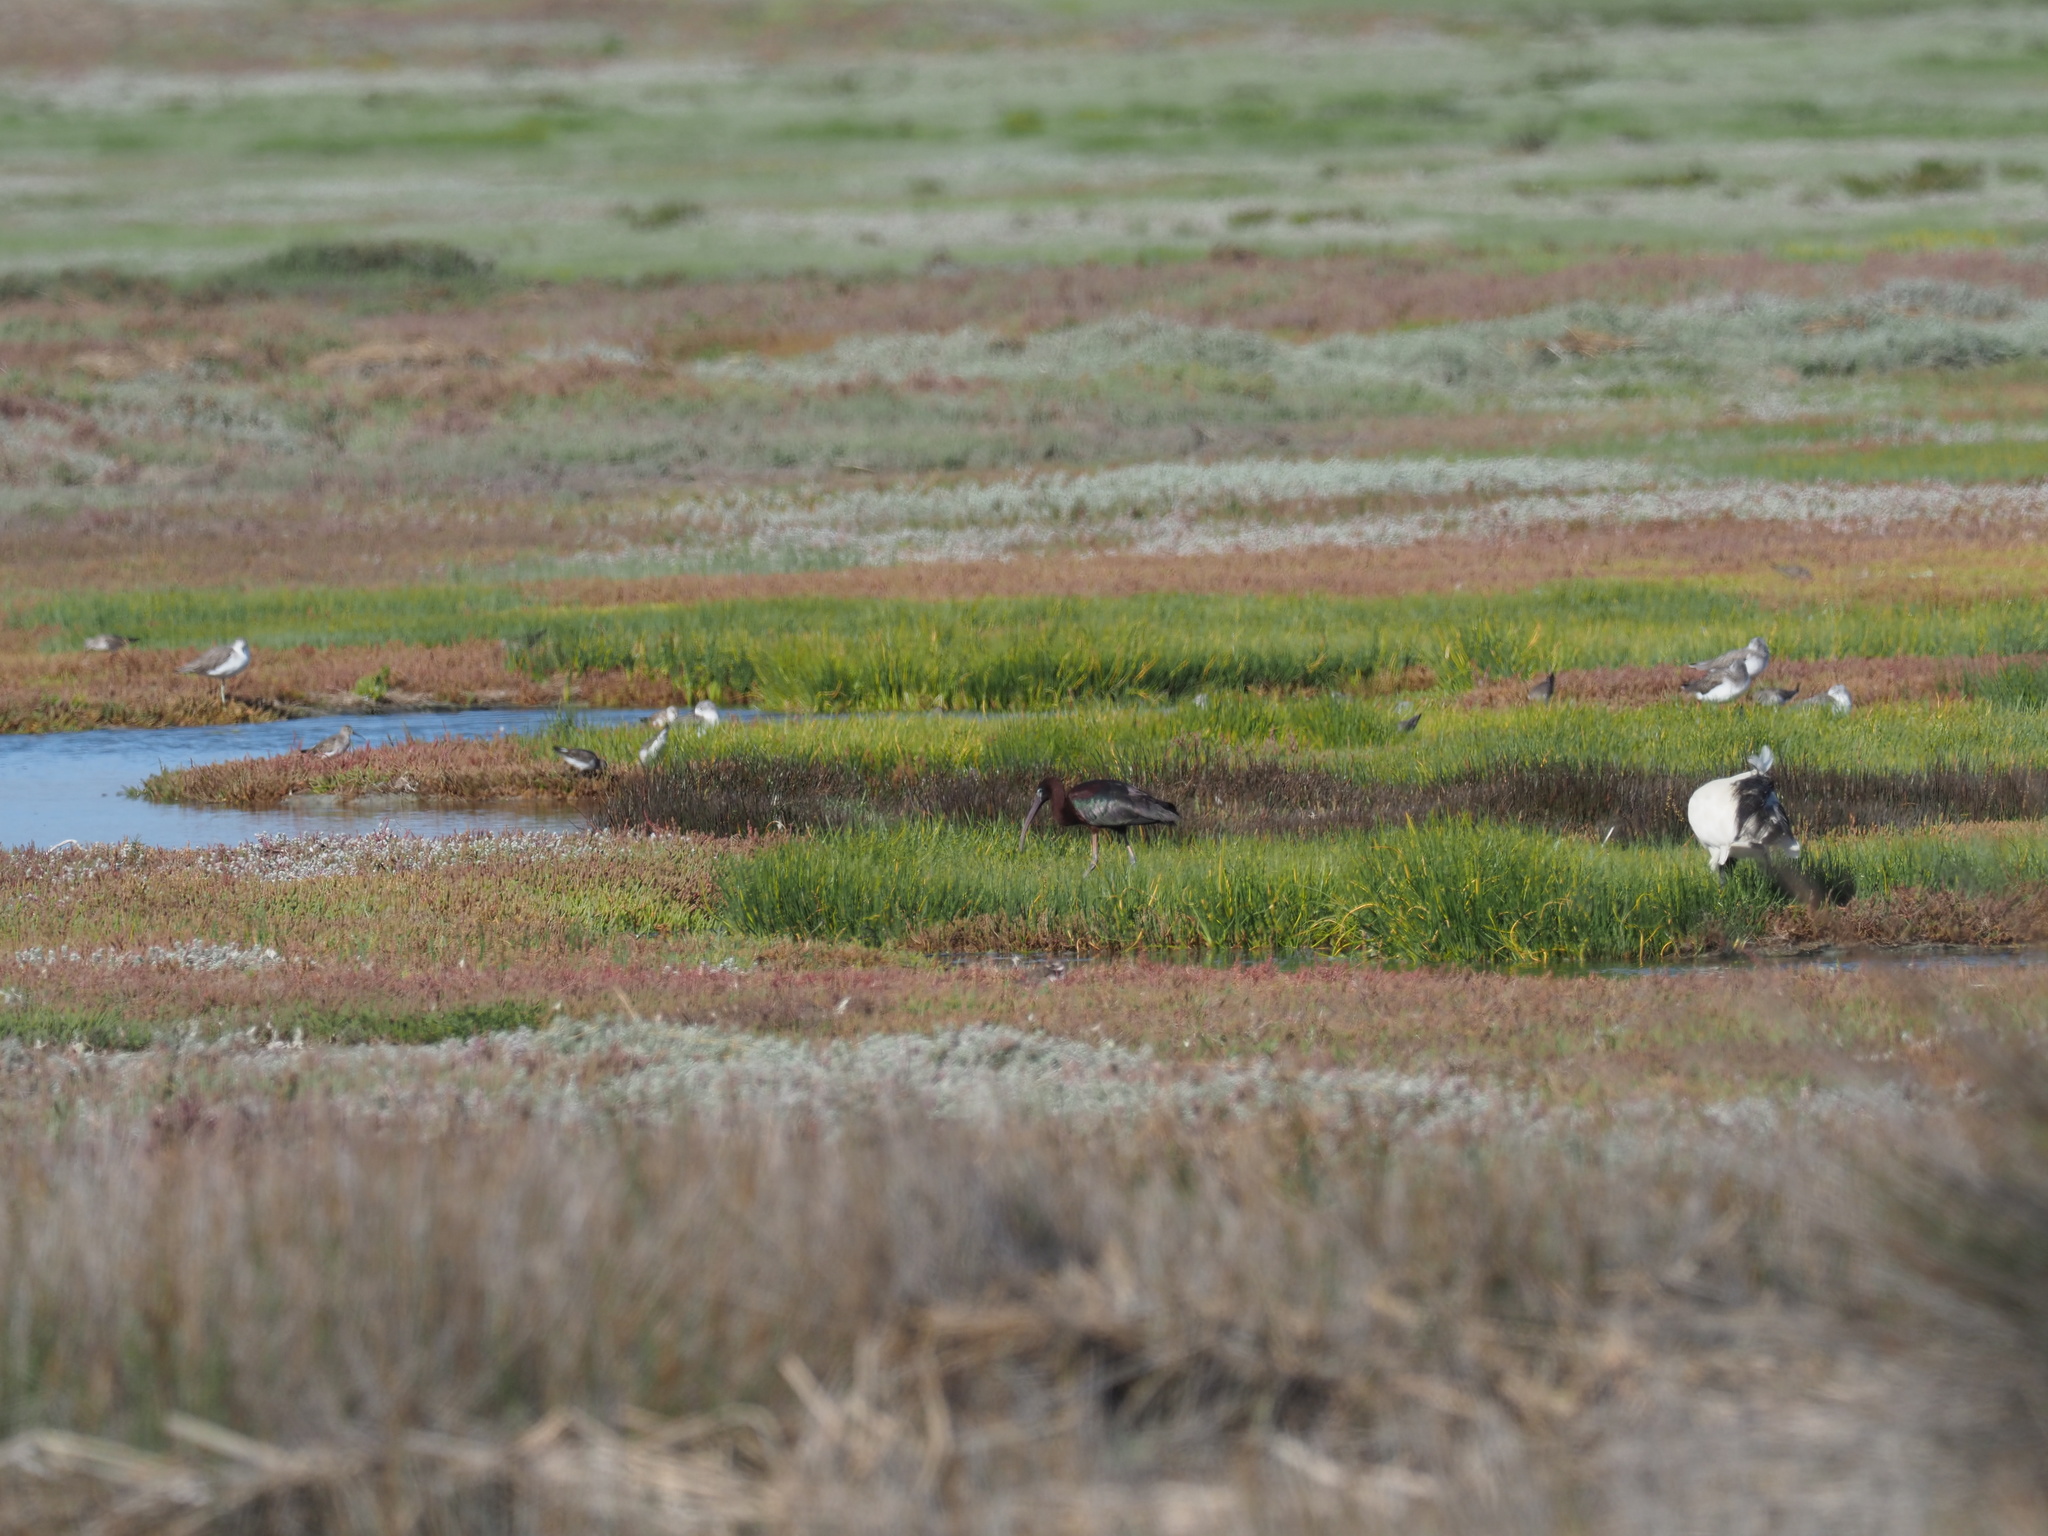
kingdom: Animalia
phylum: Chordata
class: Aves
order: Pelecaniformes
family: Threskiornithidae
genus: Plegadis
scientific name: Plegadis falcinellus
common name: Glossy ibis
